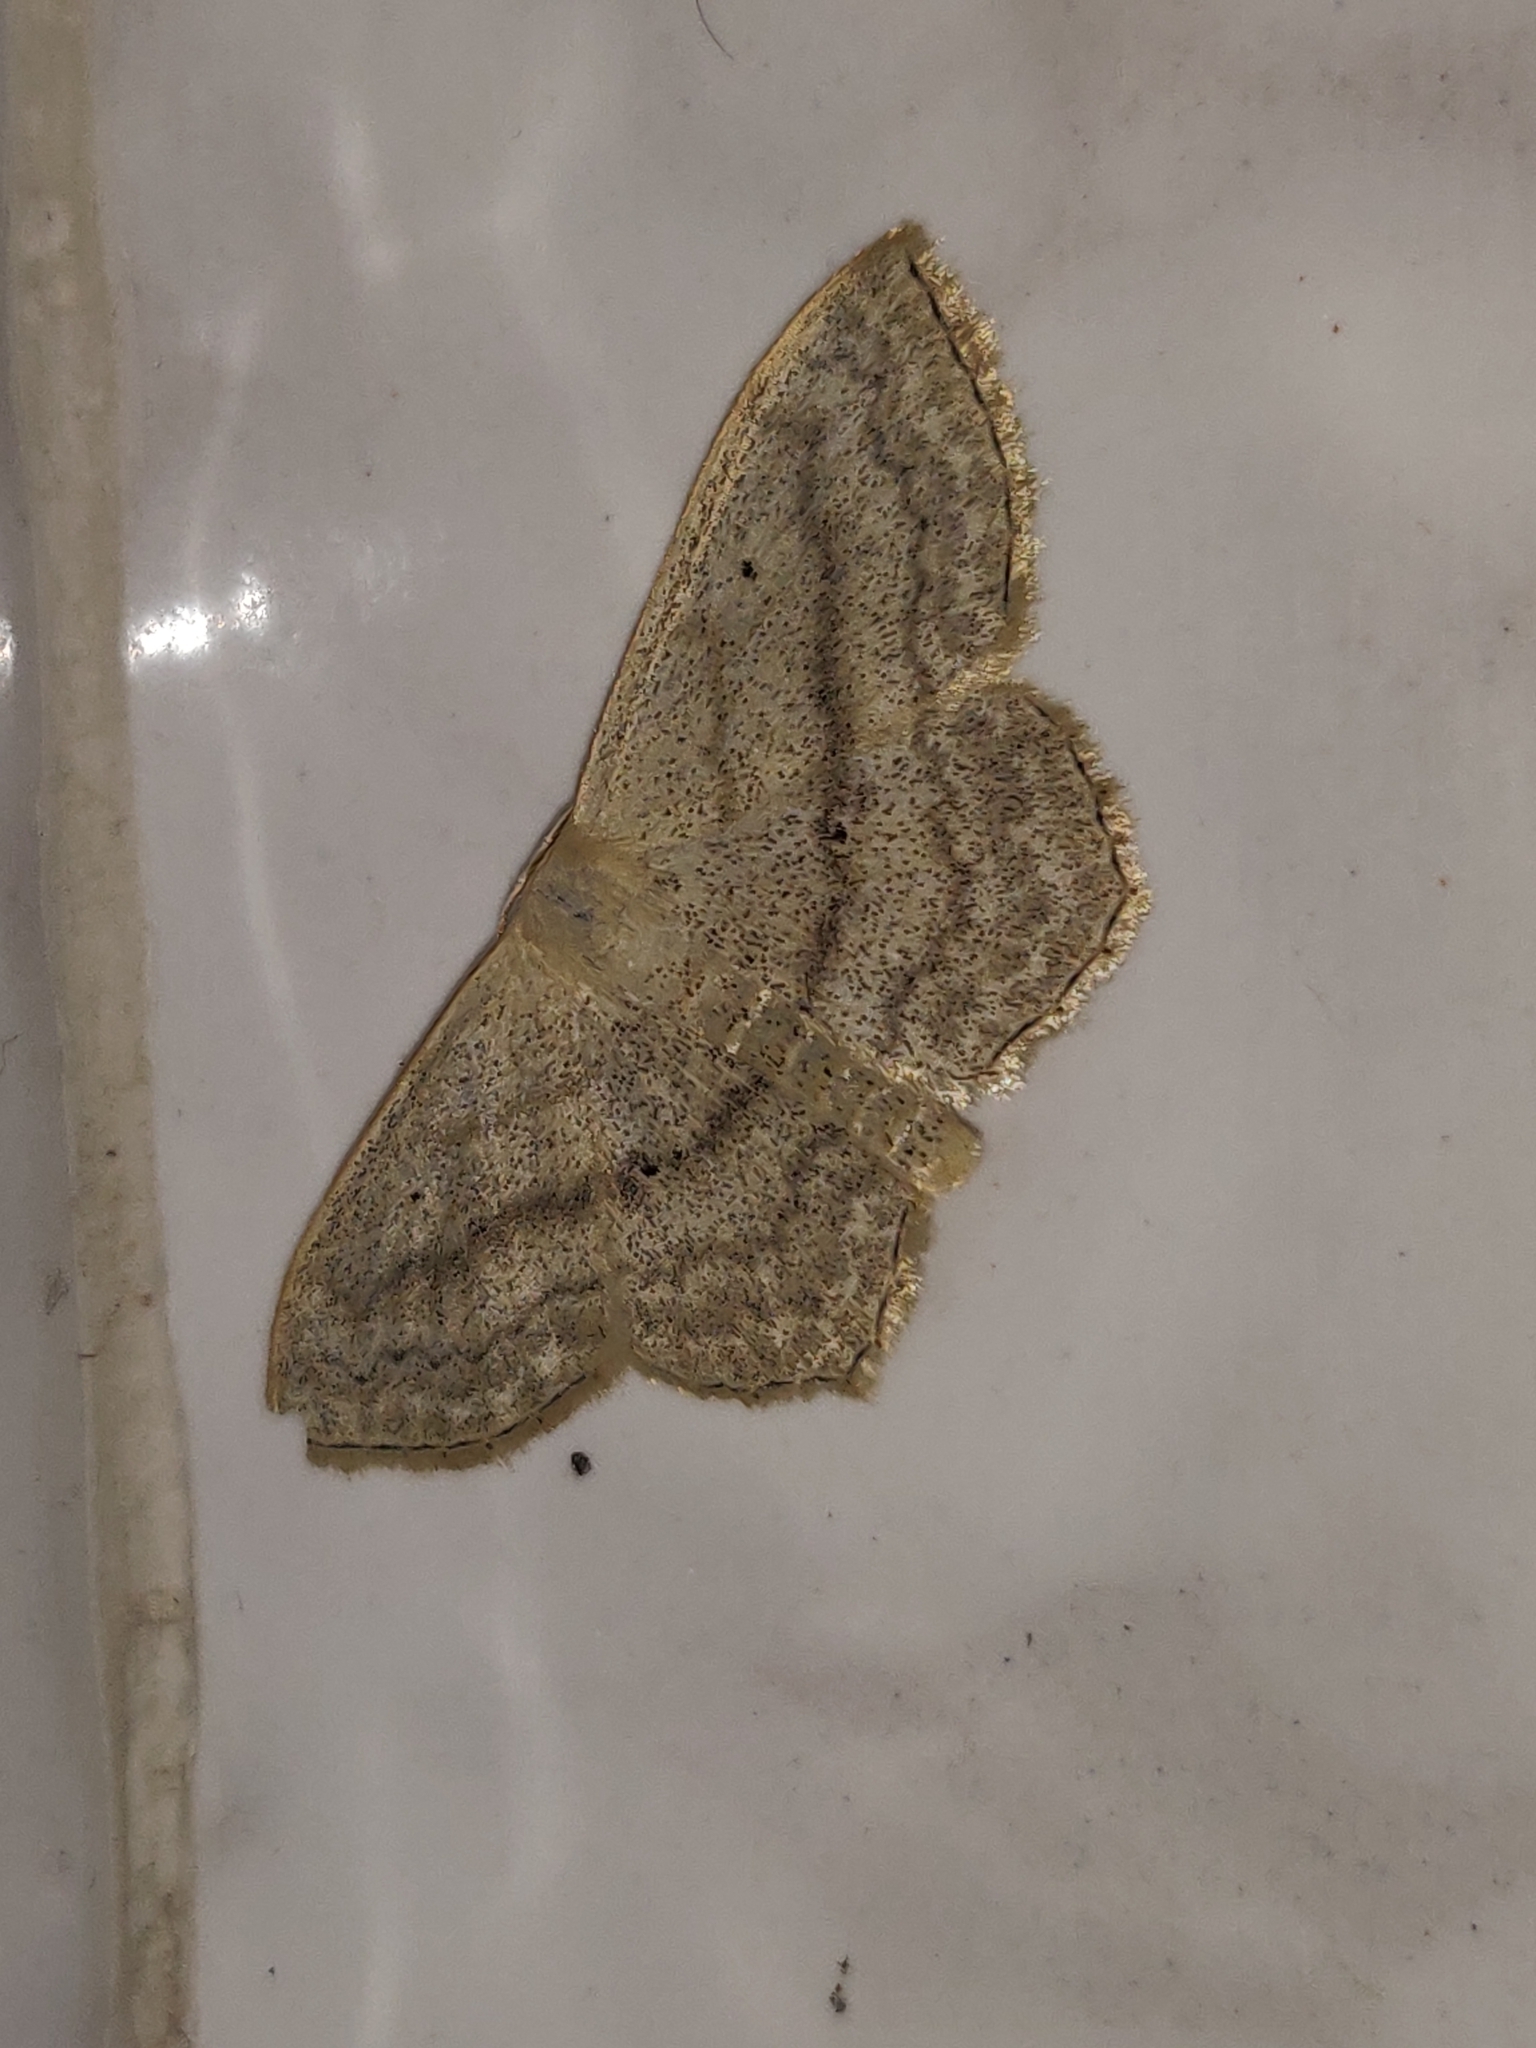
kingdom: Animalia
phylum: Arthropoda
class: Insecta
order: Lepidoptera
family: Geometridae
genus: Scopula
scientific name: Scopula nigropunctata
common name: Sub-angled wave
